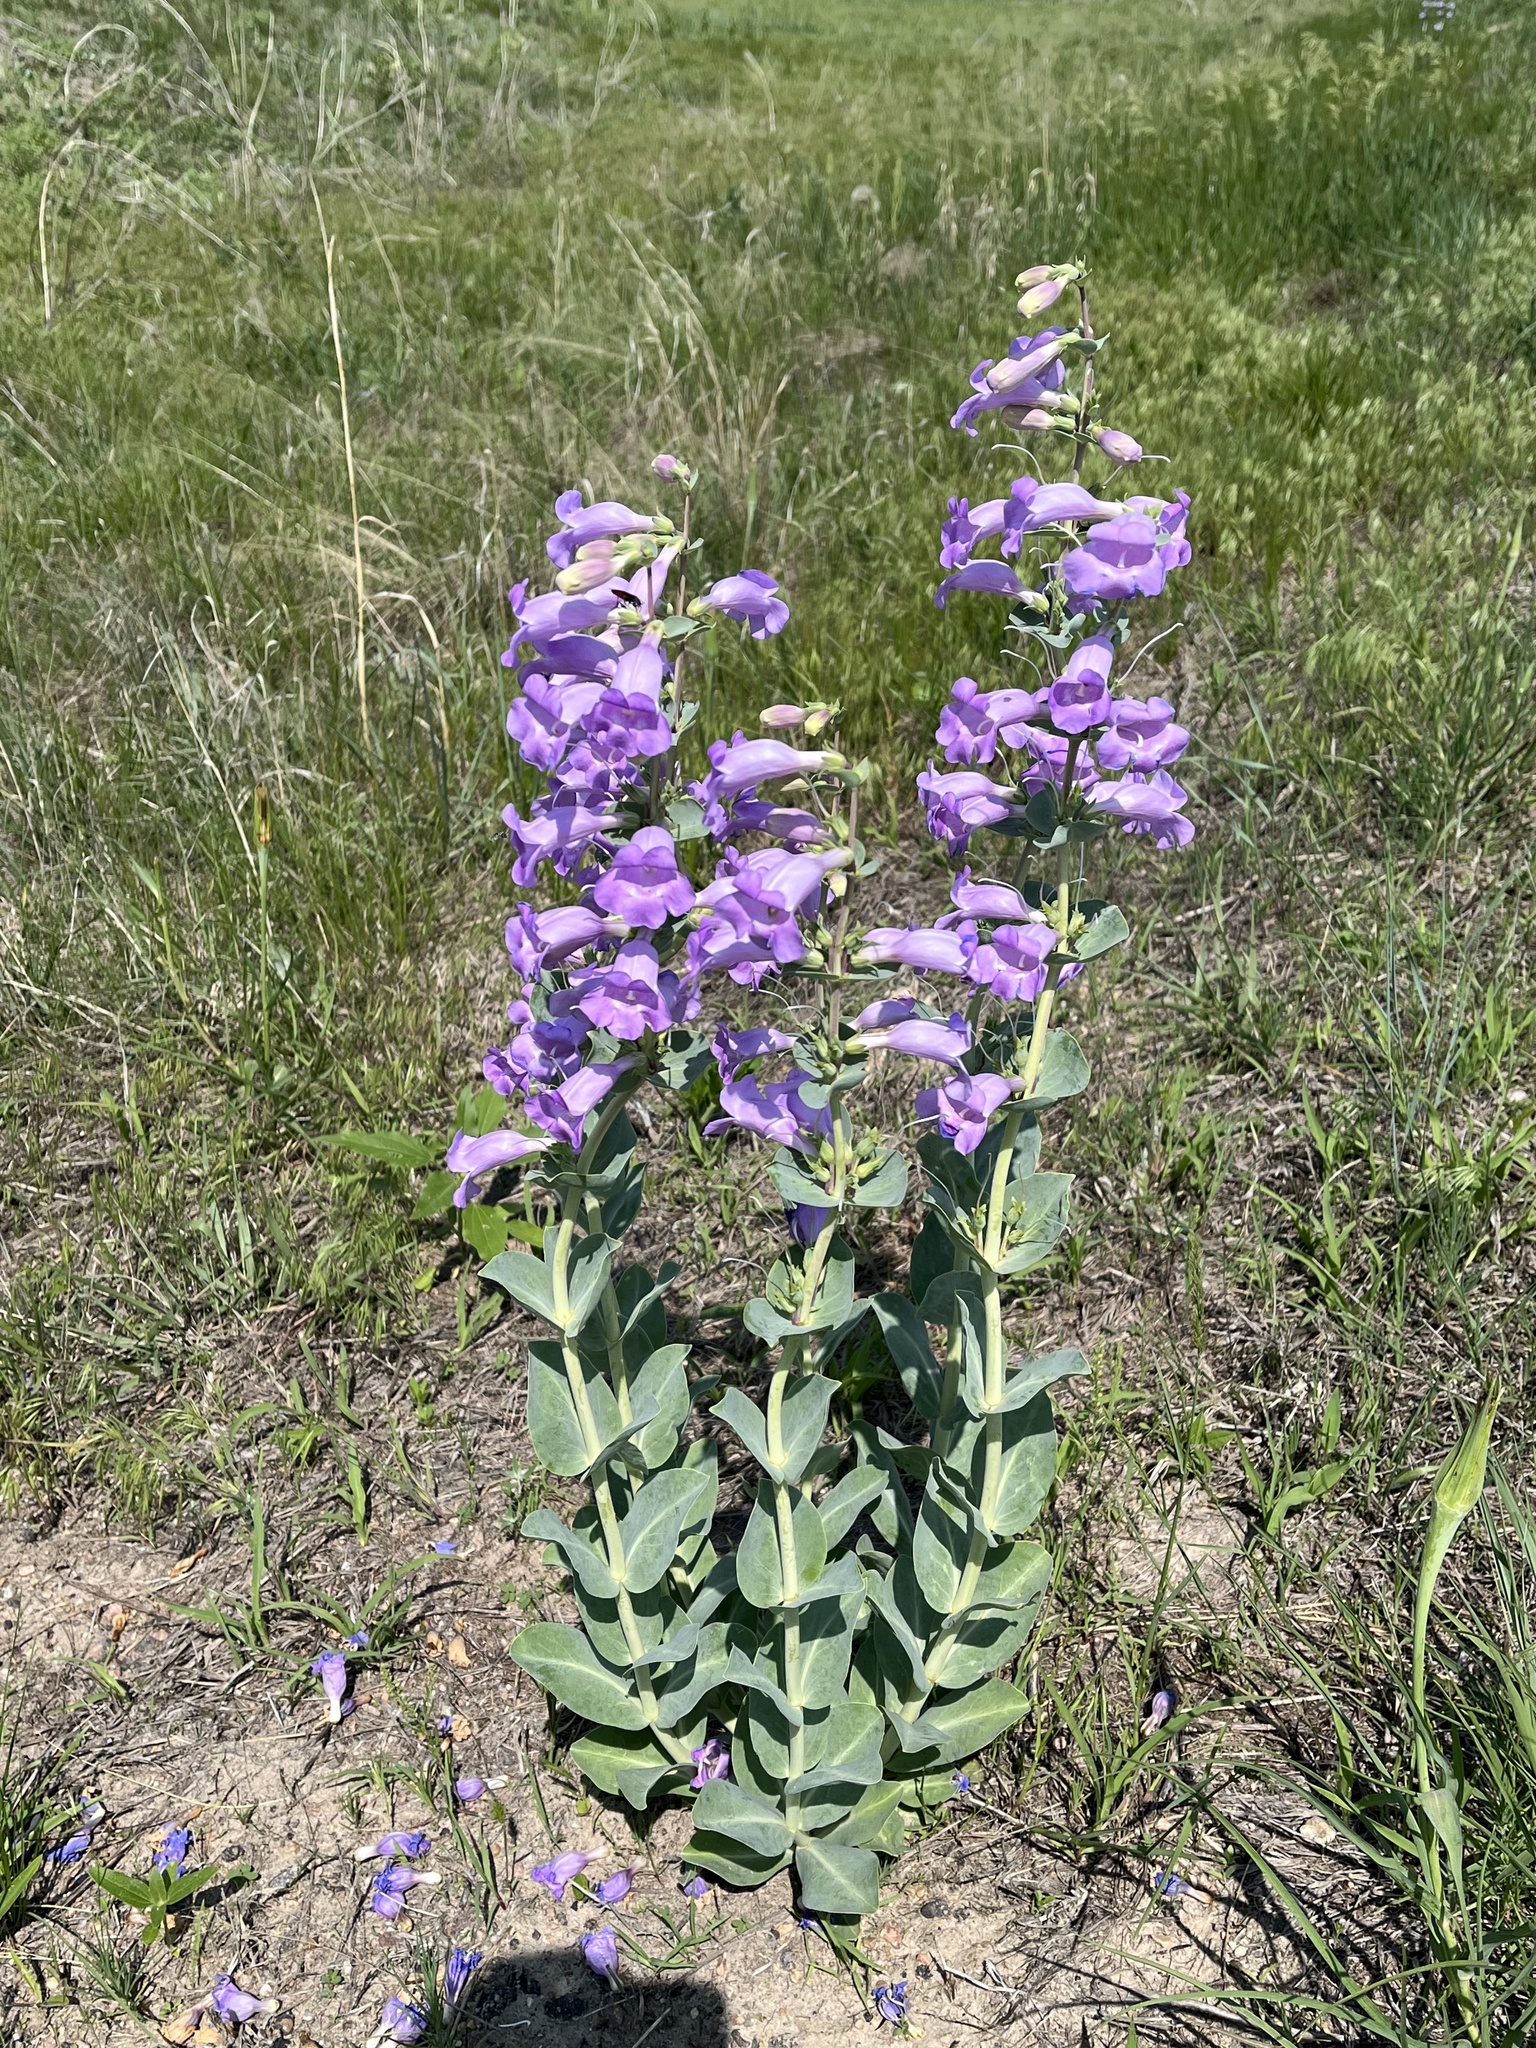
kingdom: Plantae
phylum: Tracheophyta
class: Magnoliopsida
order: Lamiales
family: Plantaginaceae
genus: Penstemon
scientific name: Penstemon
